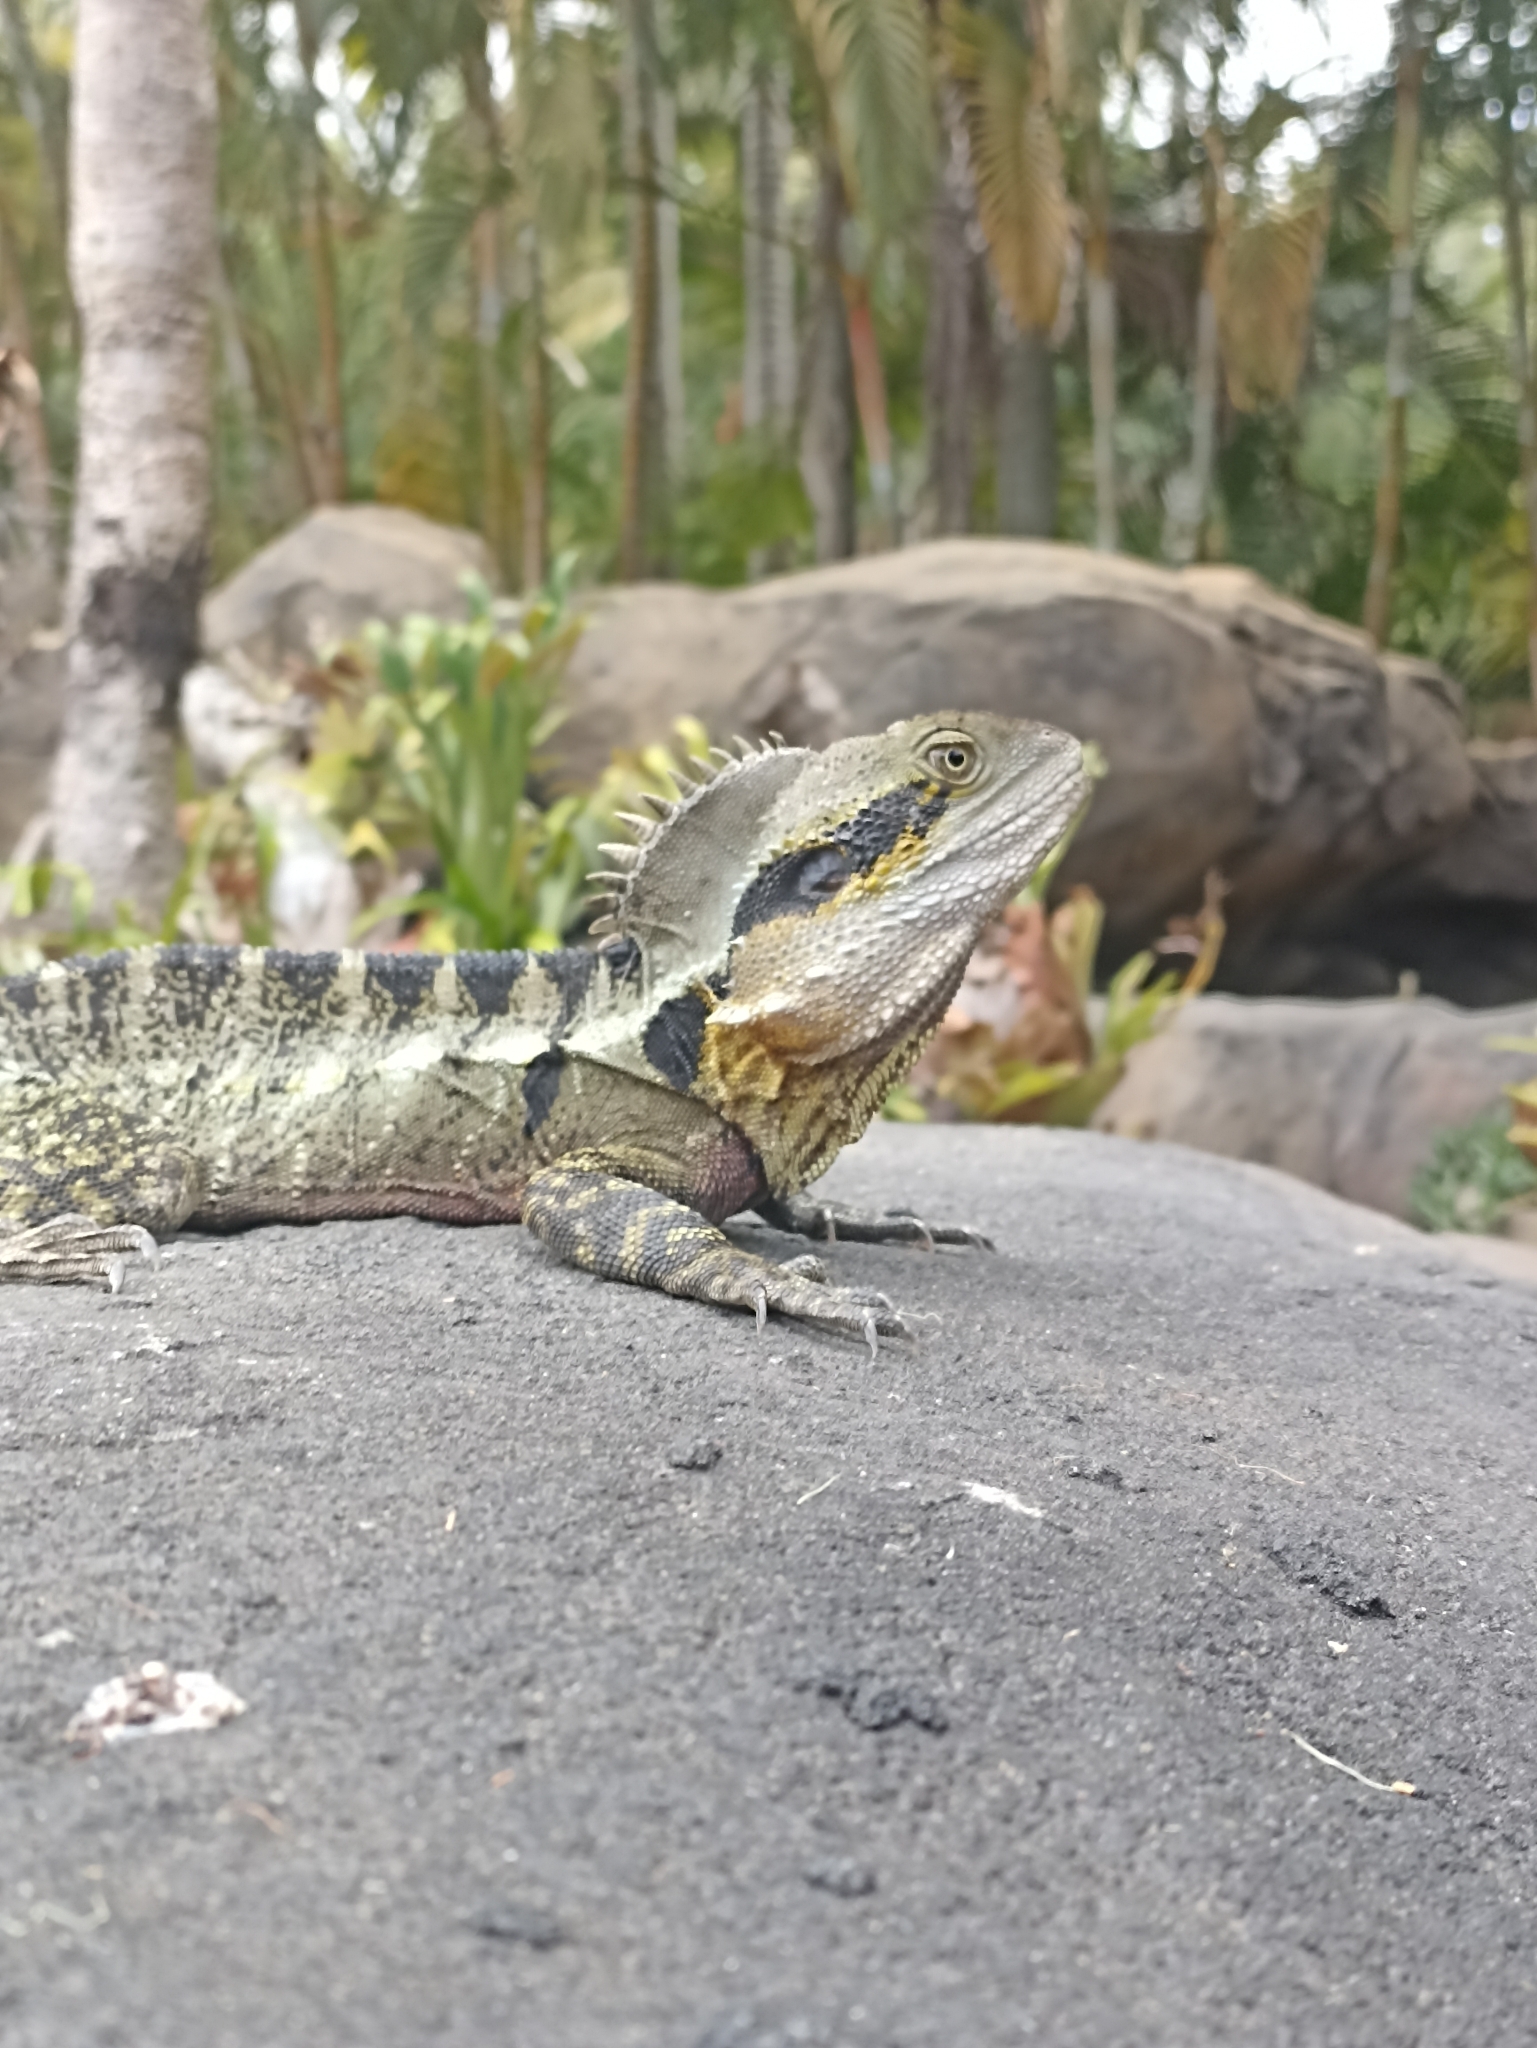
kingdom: Animalia
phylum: Chordata
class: Squamata
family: Agamidae
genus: Intellagama
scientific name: Intellagama lesueurii
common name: Eastern water dragon
